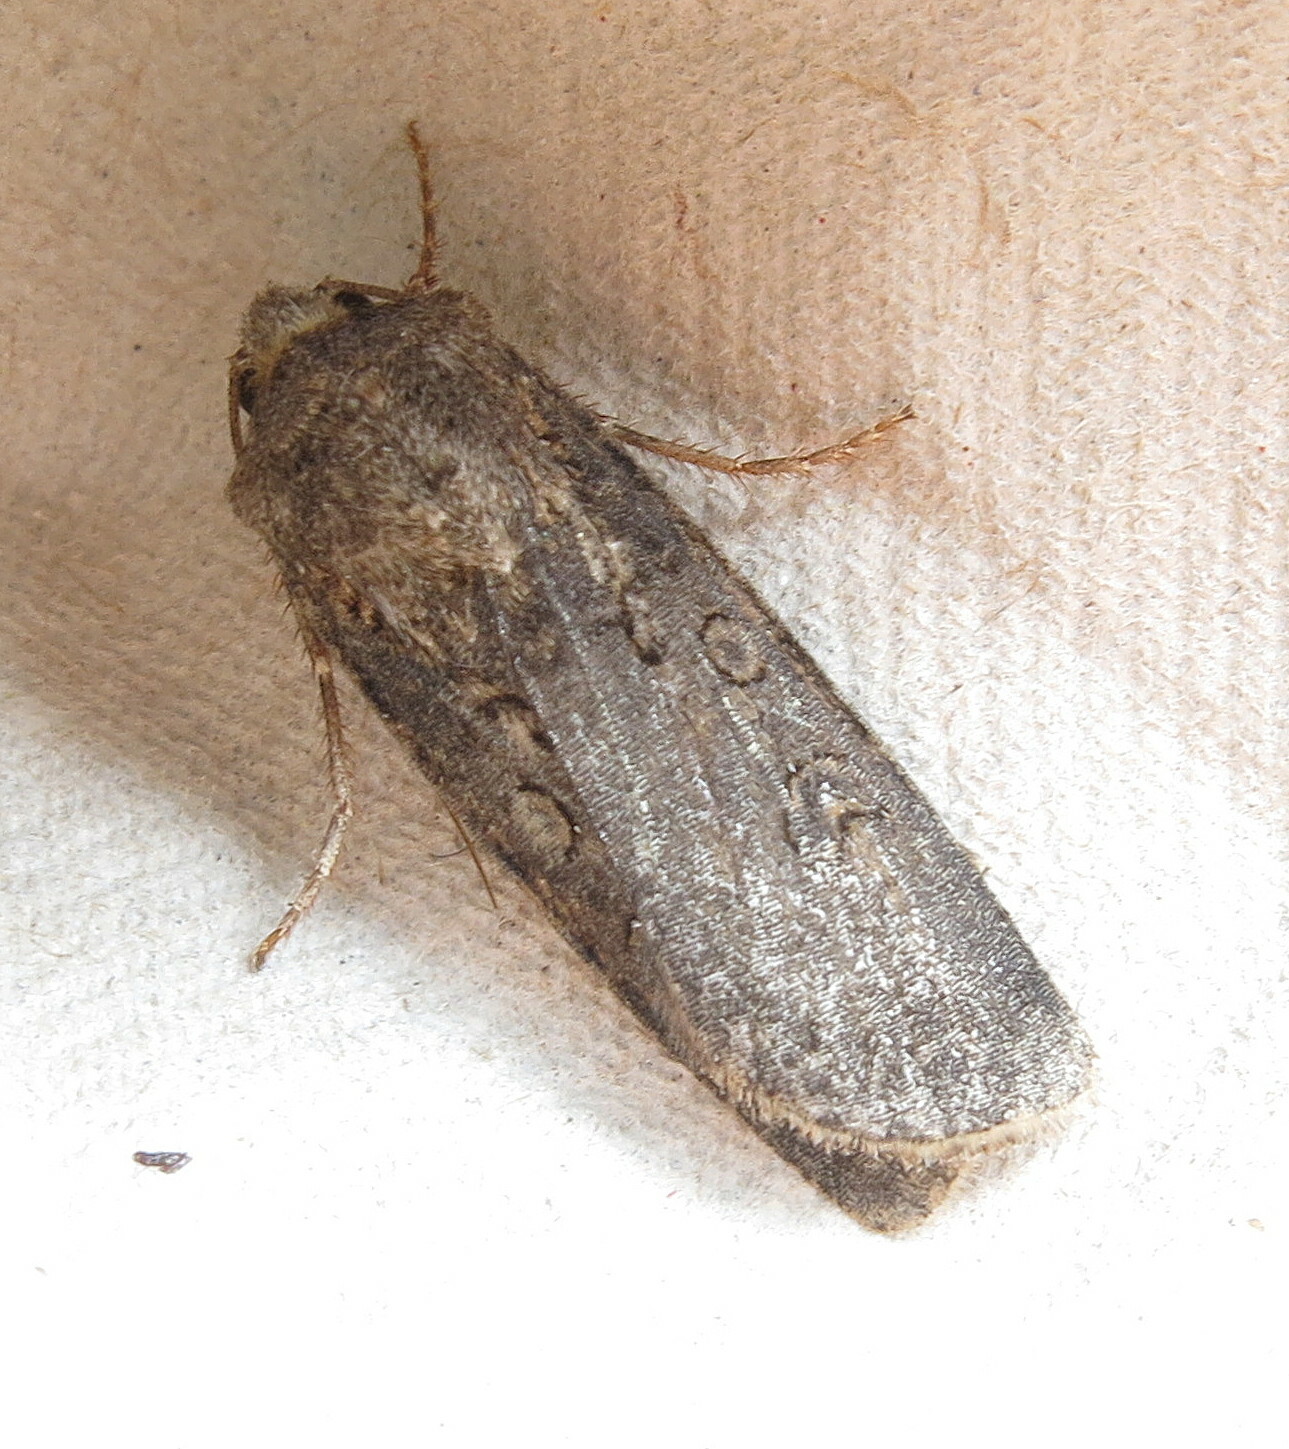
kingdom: Animalia
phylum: Arthropoda
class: Insecta
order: Lepidoptera
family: Noctuidae
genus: Agrotis
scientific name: Agrotis segetum
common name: Turnip moth
